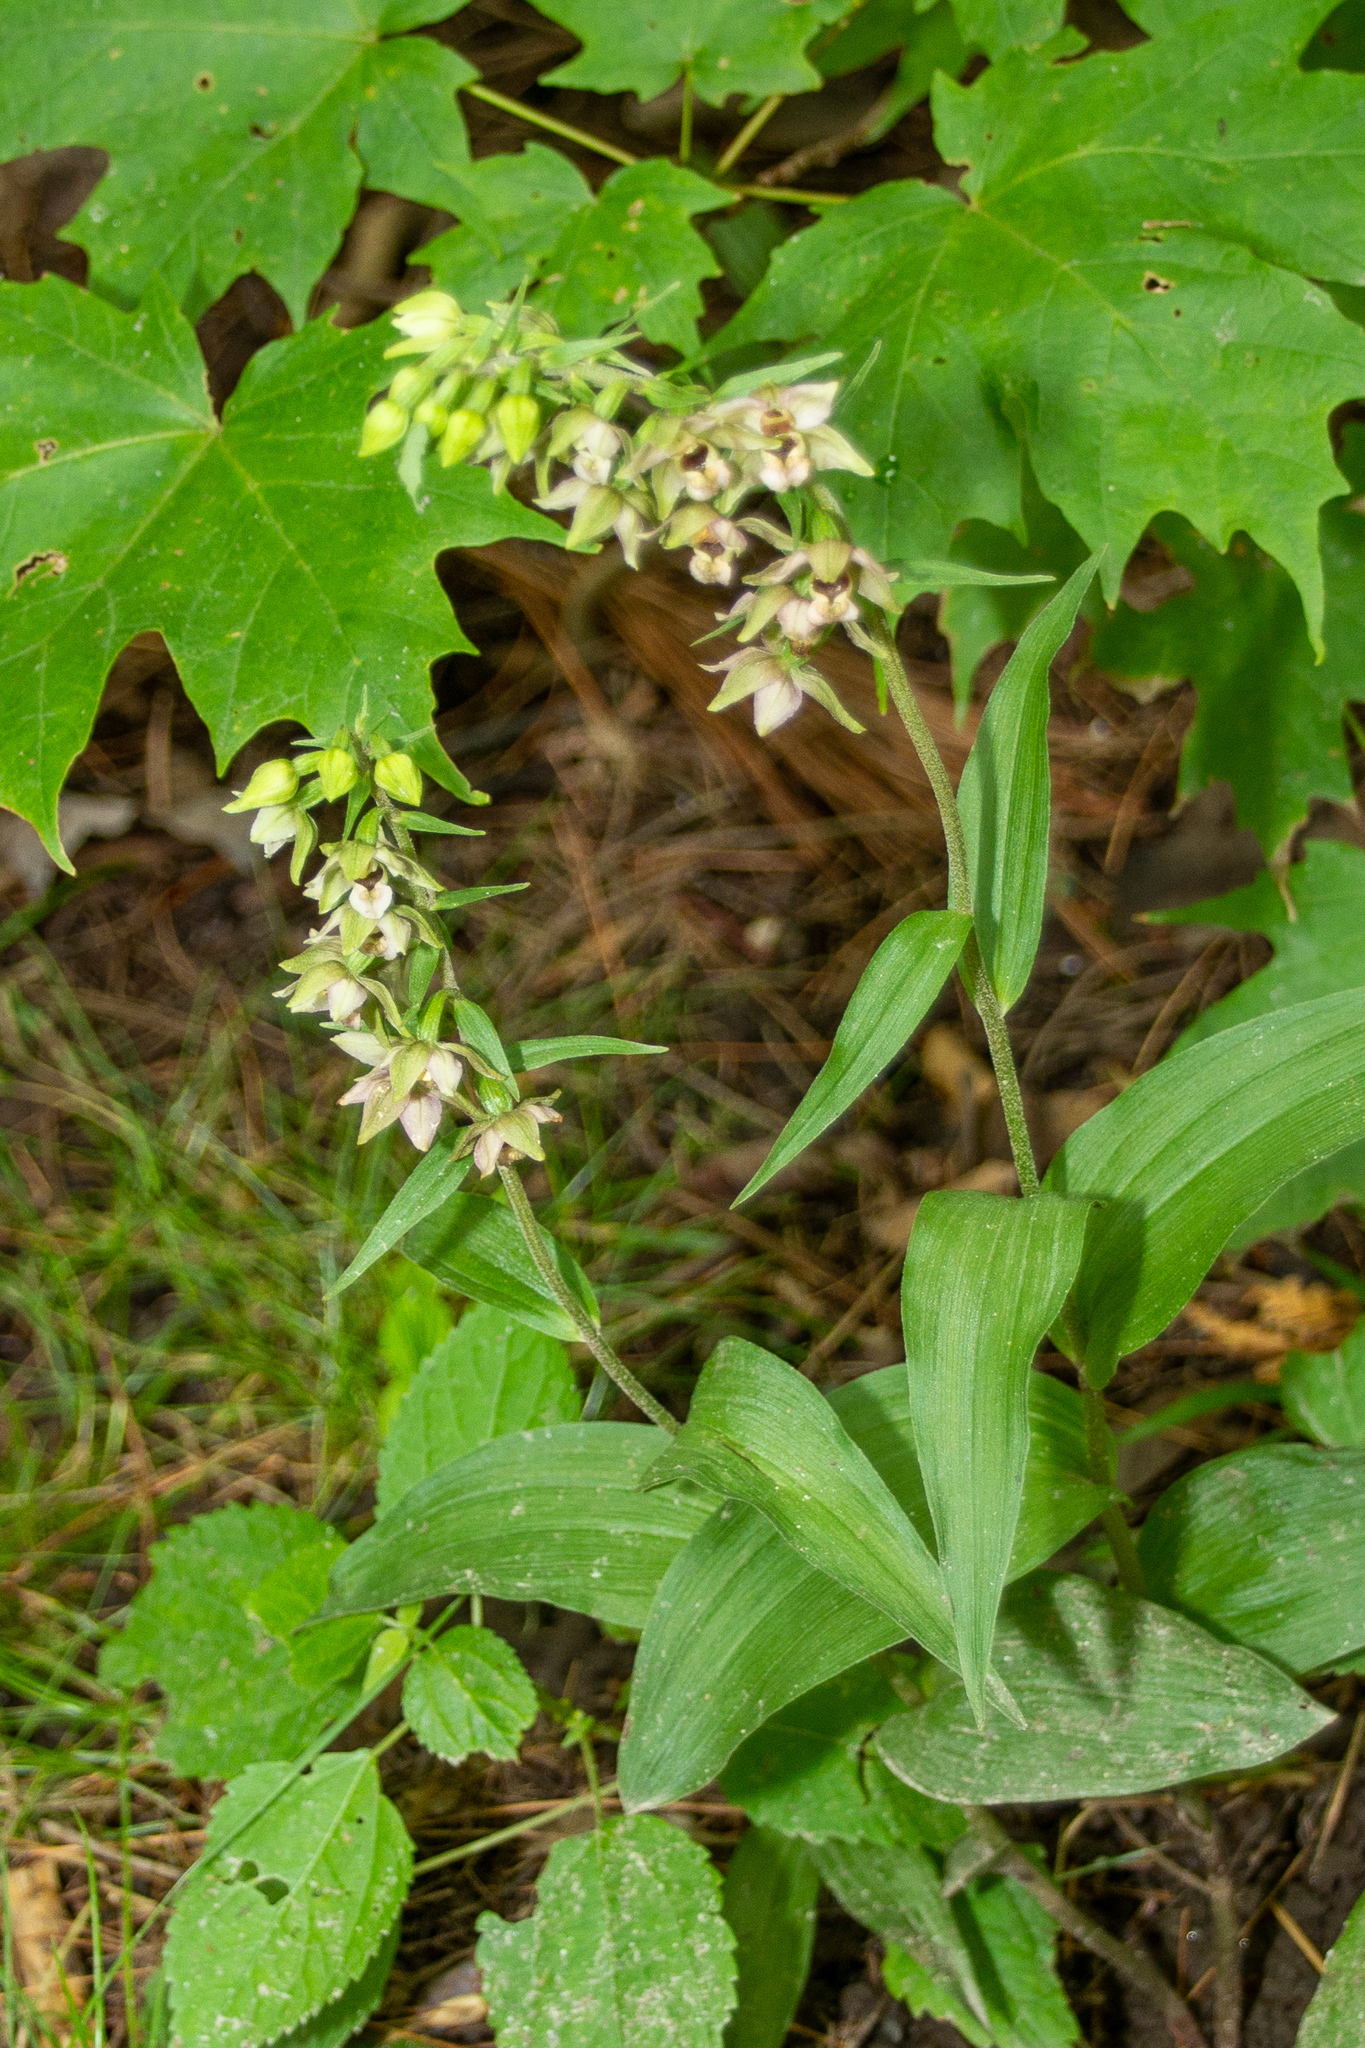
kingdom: Plantae
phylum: Tracheophyta
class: Liliopsida
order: Asparagales
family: Orchidaceae
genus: Epipactis
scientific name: Epipactis helleborine
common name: Broad-leaved helleborine
